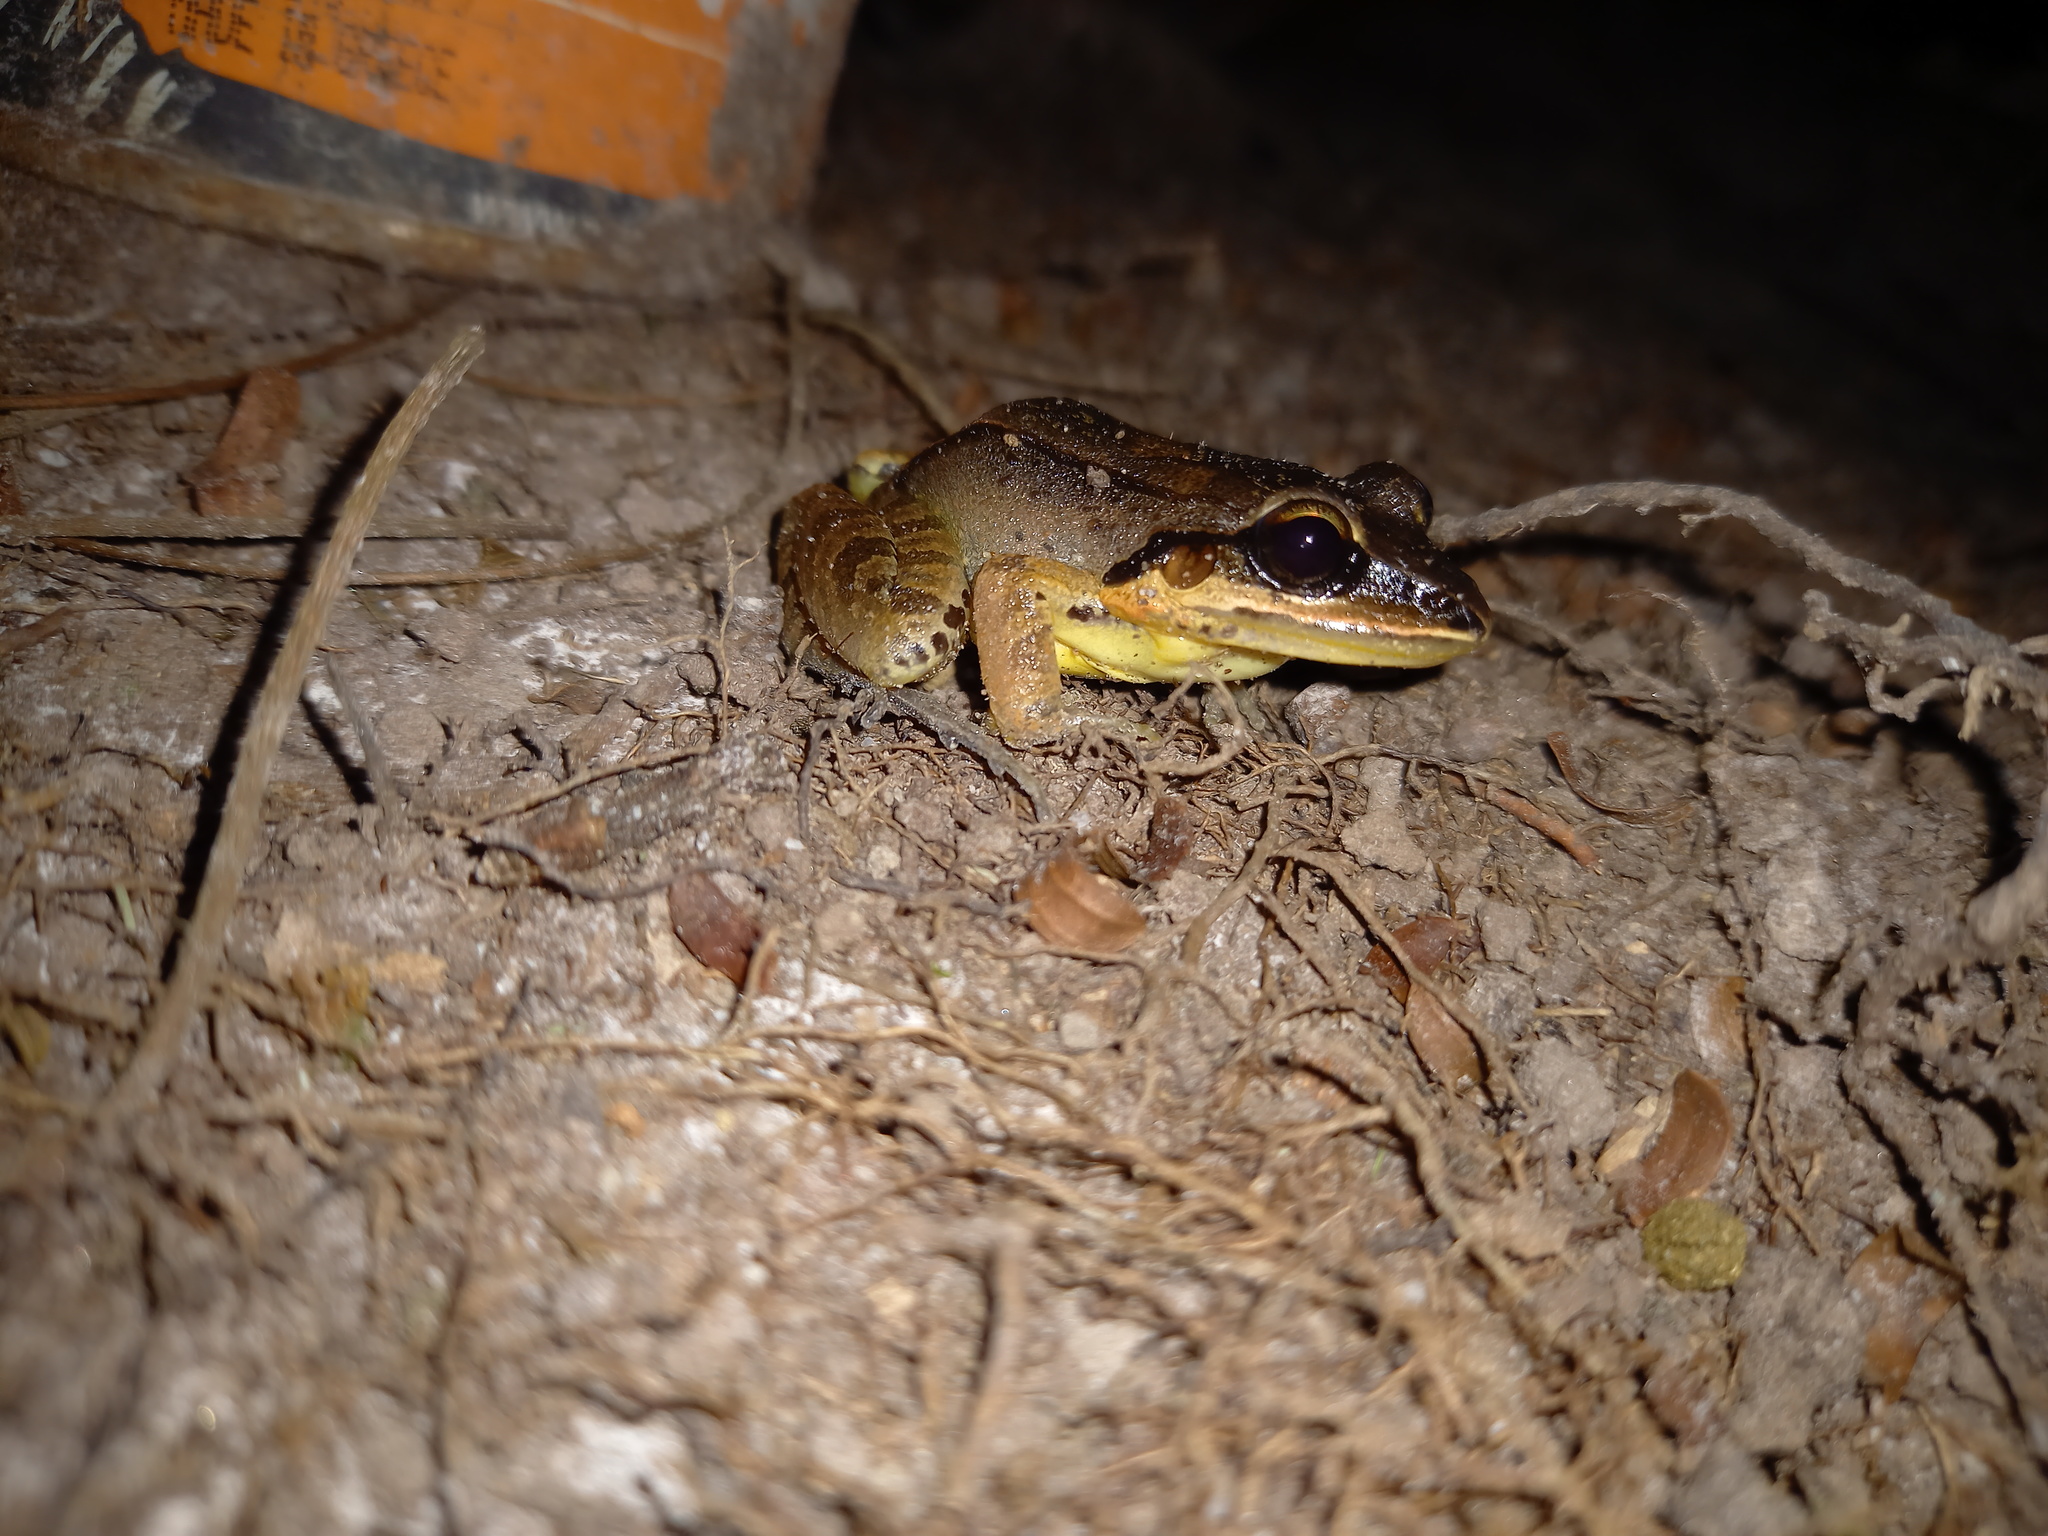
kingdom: Animalia
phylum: Chordata
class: Amphibia
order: Anura
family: Leptodactylidae
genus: Leptodactylus
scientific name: Leptodactylus mystaceus
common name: Amazonian white-lipped frog
